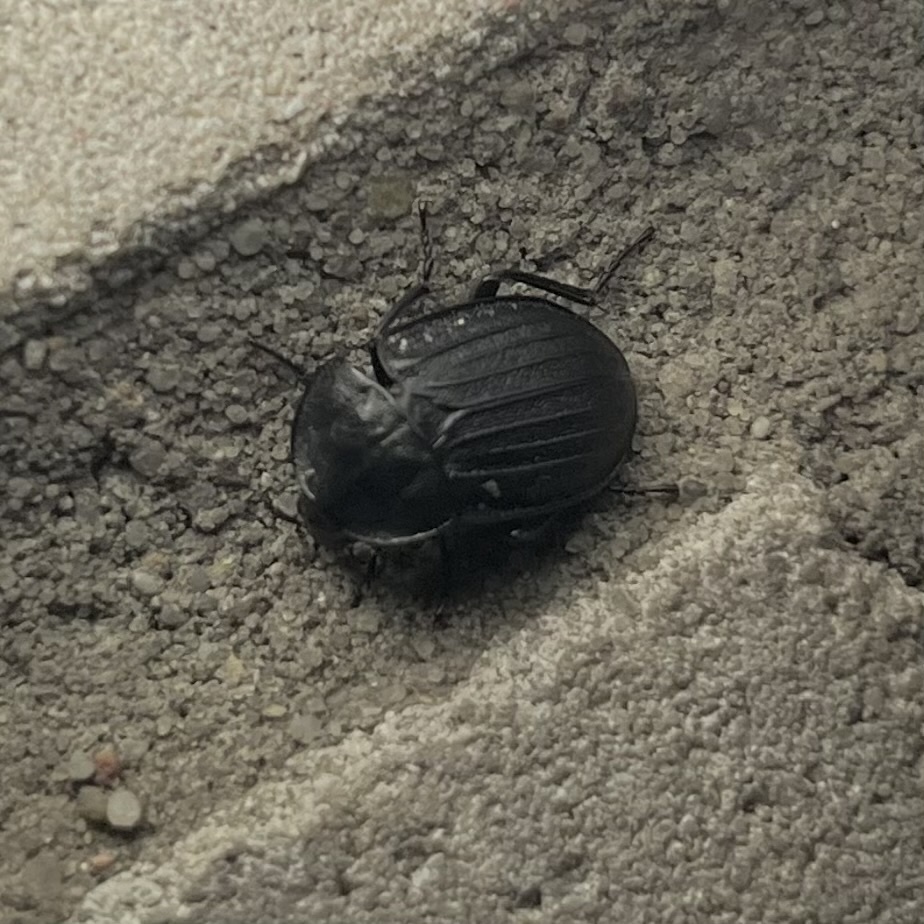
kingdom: Animalia
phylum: Arthropoda
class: Insecta
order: Coleoptera
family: Staphylinidae
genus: Silpha
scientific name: Silpha atrata
